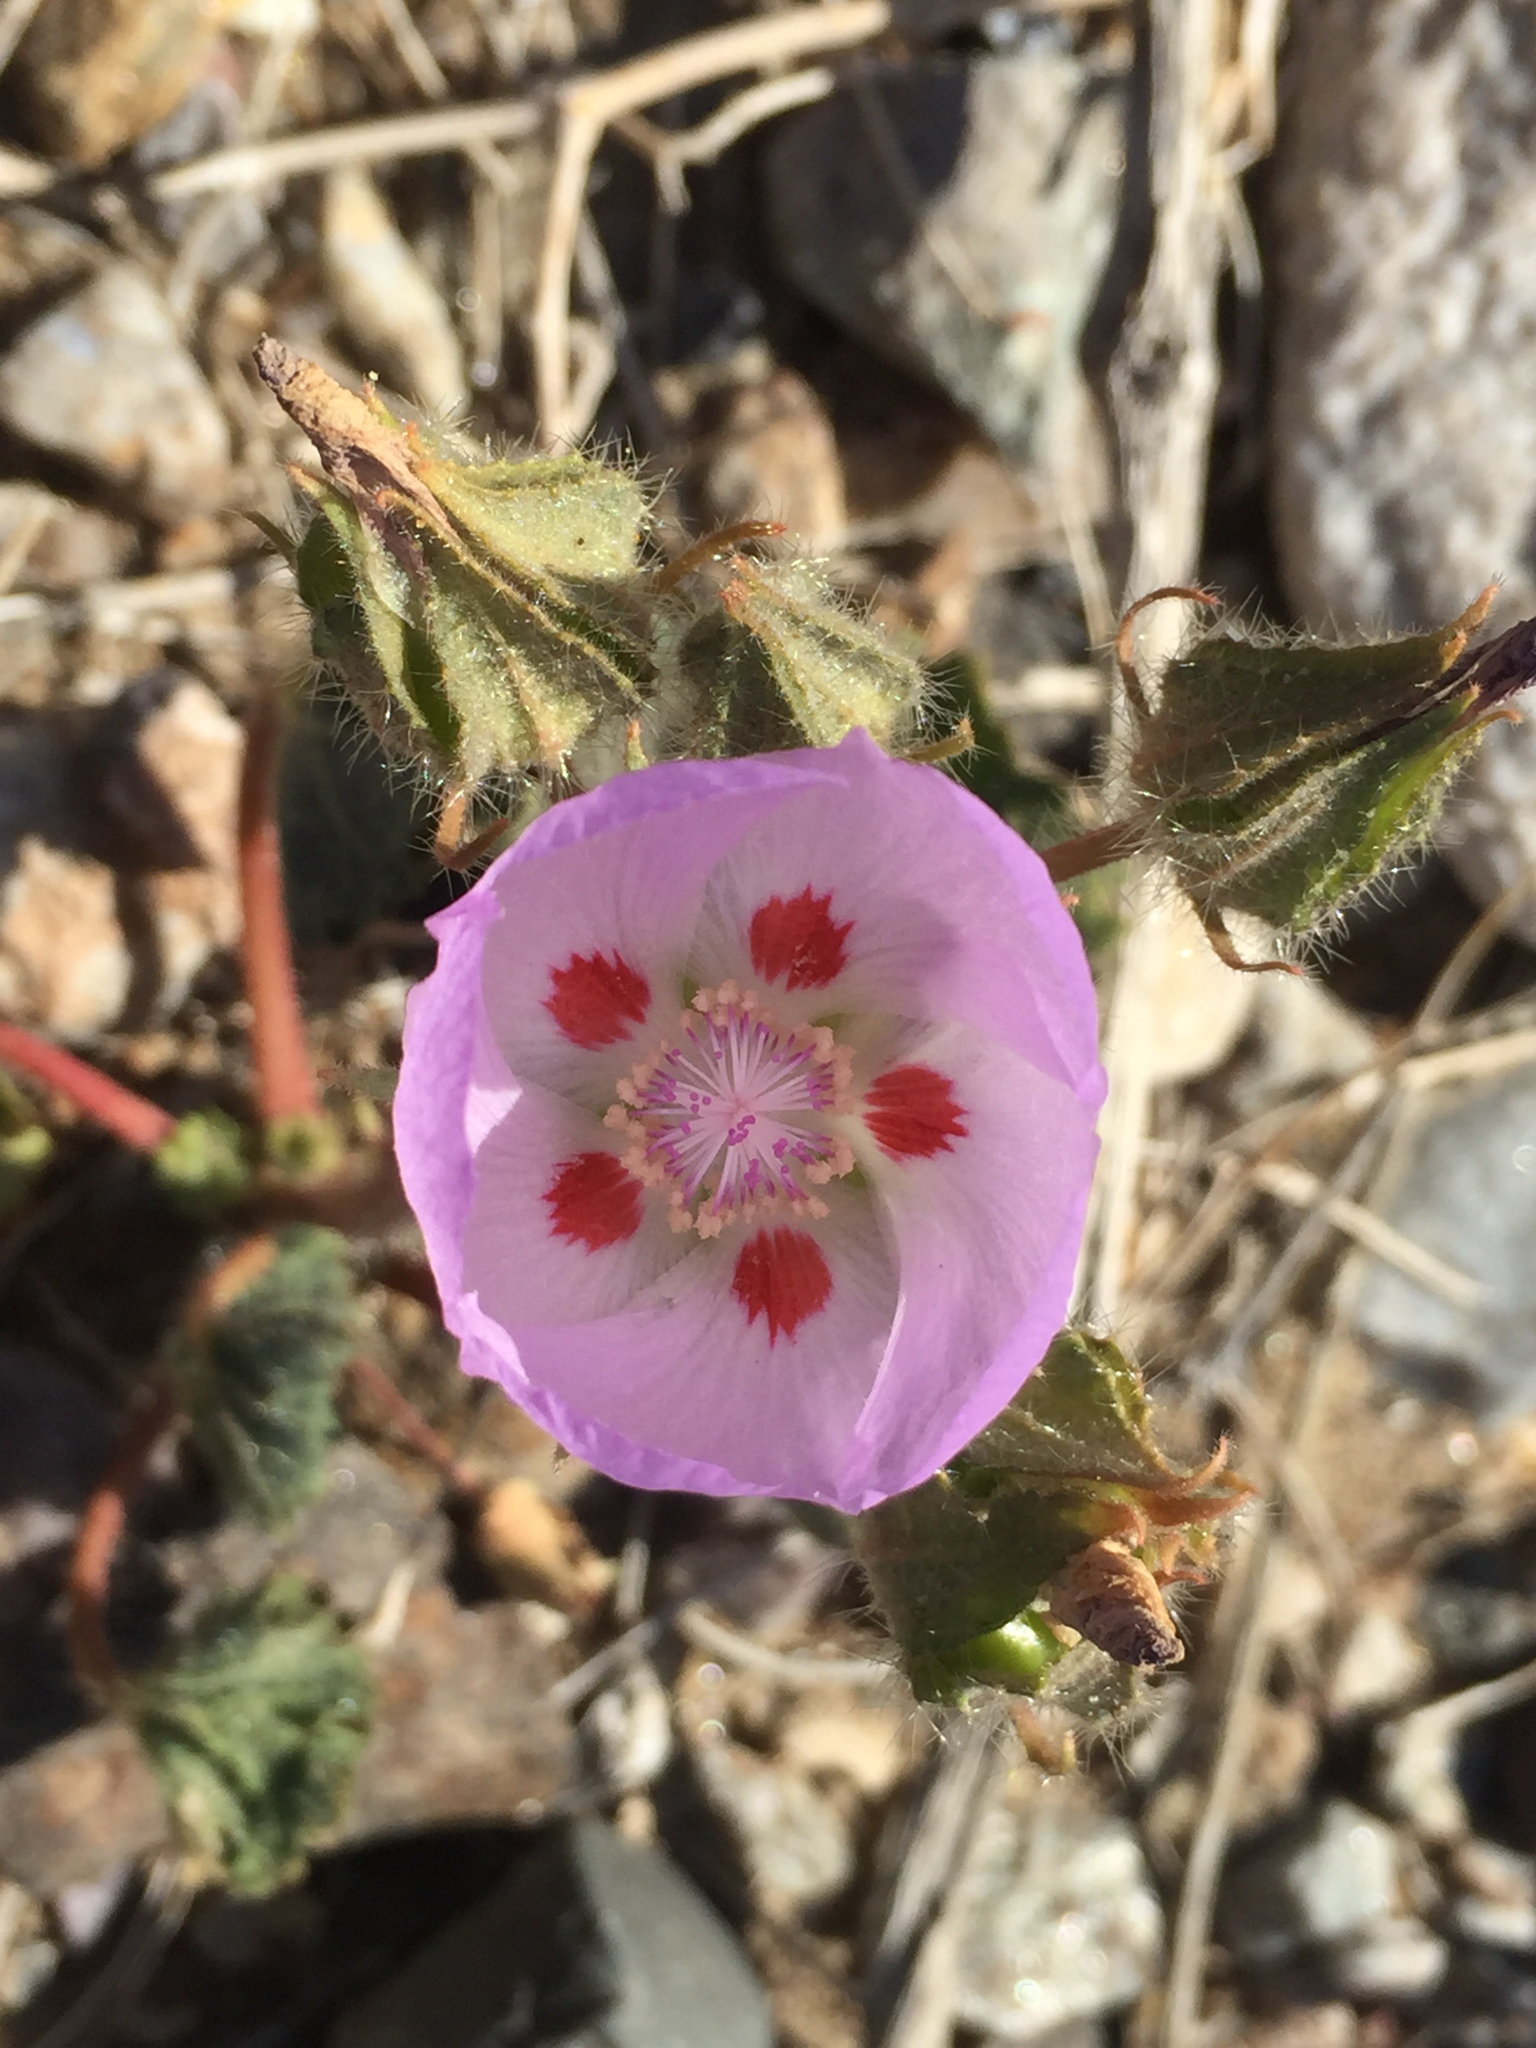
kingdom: Plantae
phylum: Tracheophyta
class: Magnoliopsida
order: Malvales
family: Malvaceae
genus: Eremalche
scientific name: Eremalche rotundifolia
